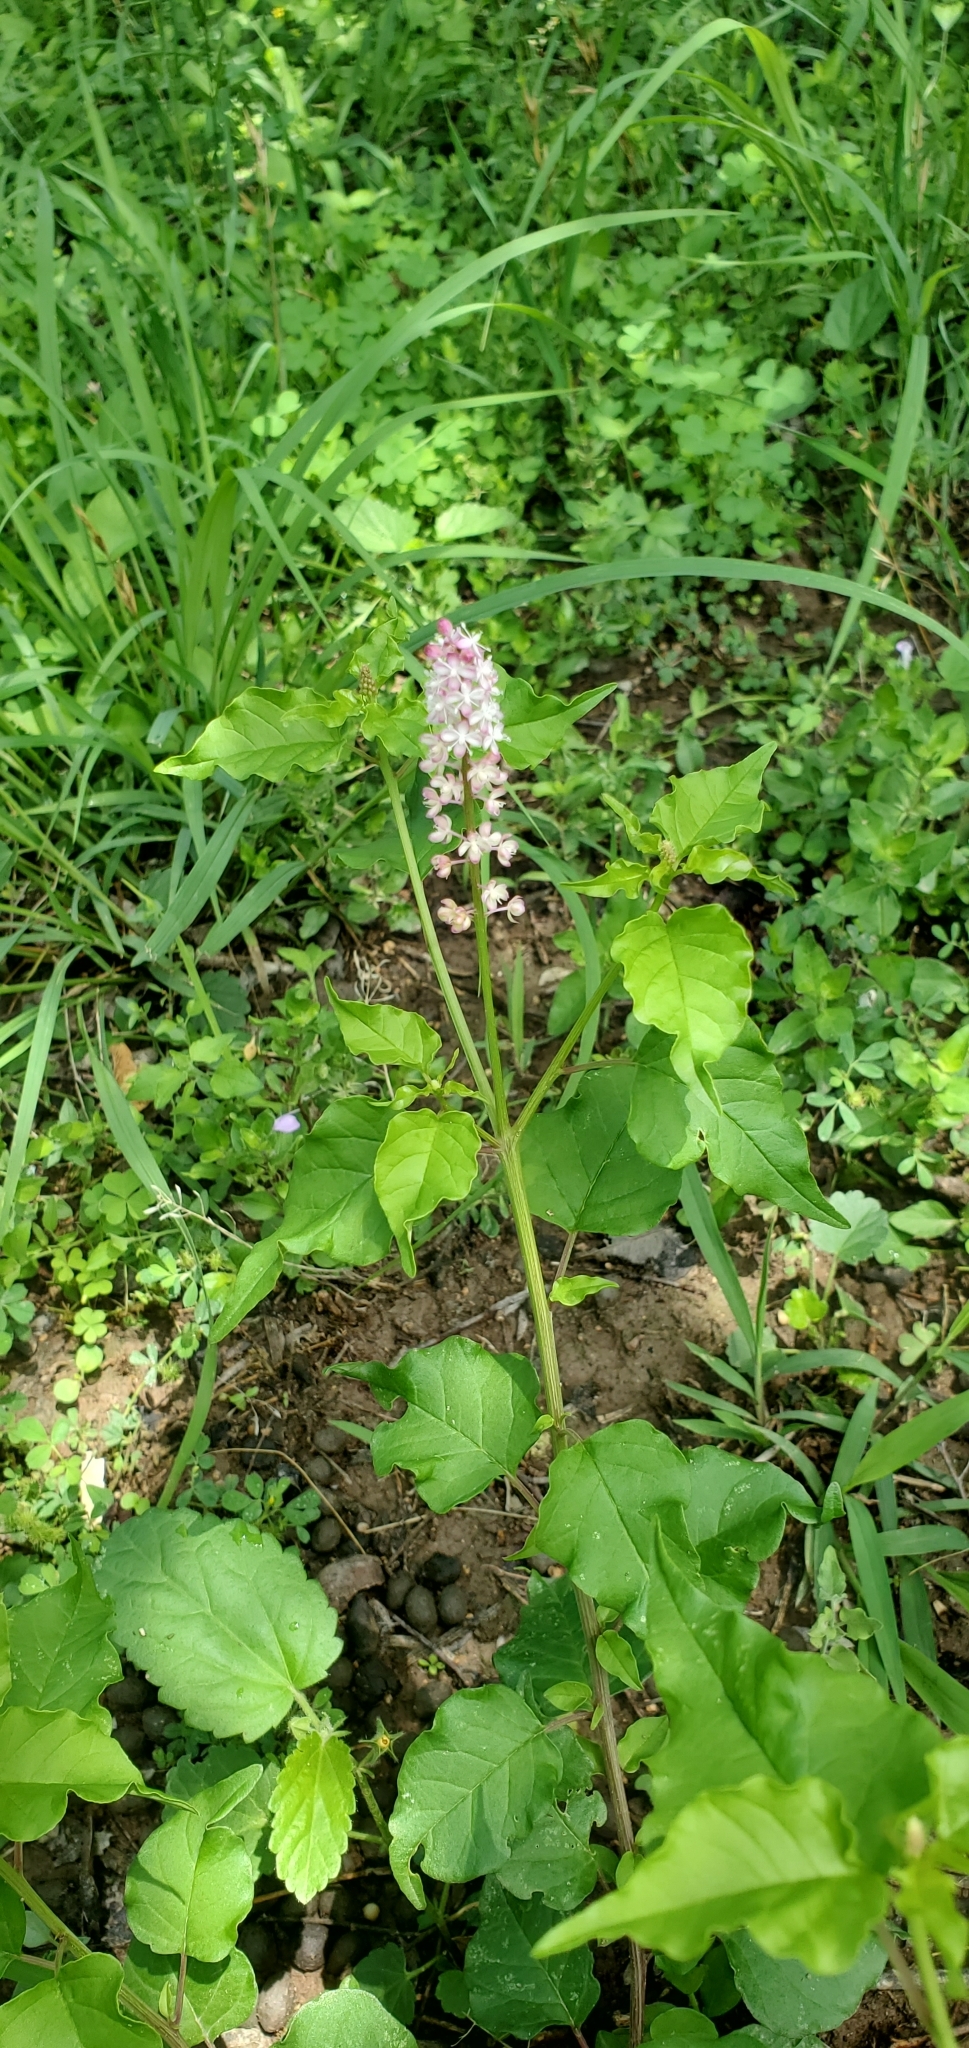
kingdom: Plantae
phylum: Tracheophyta
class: Magnoliopsida
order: Caryophyllales
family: Phytolaccaceae
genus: Rivina
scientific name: Rivina humilis
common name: Rougeplant
